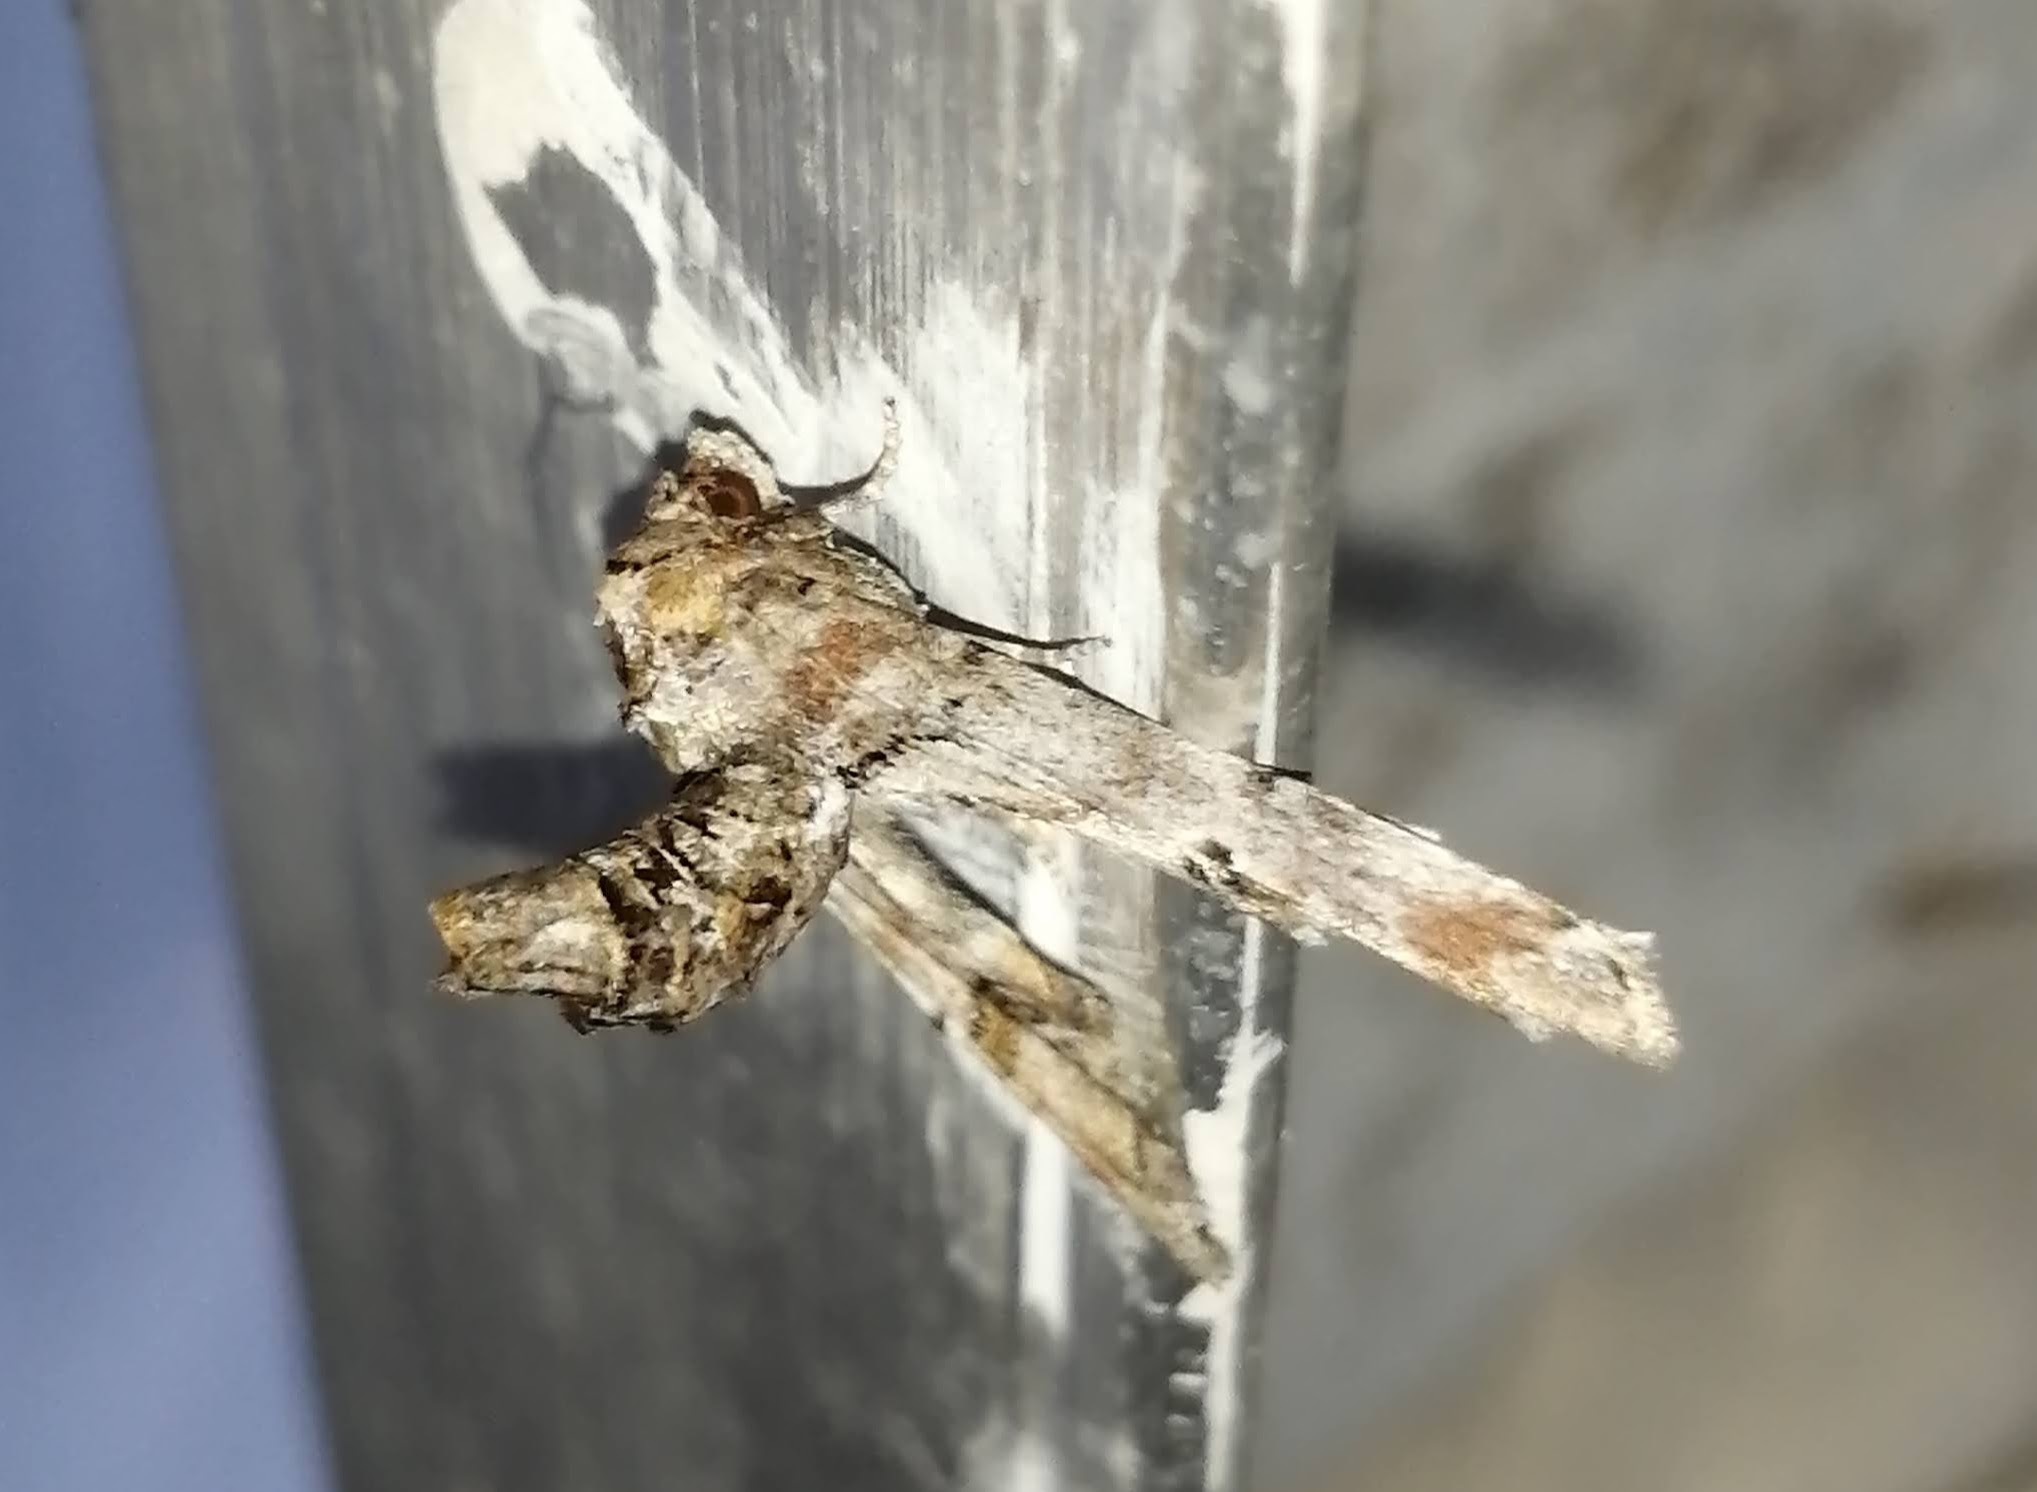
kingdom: Animalia
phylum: Arthropoda
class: Insecta
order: Lepidoptera
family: Euteliidae
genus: Marathyssa
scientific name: Marathyssa inficita
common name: Dark marathyssa moth
